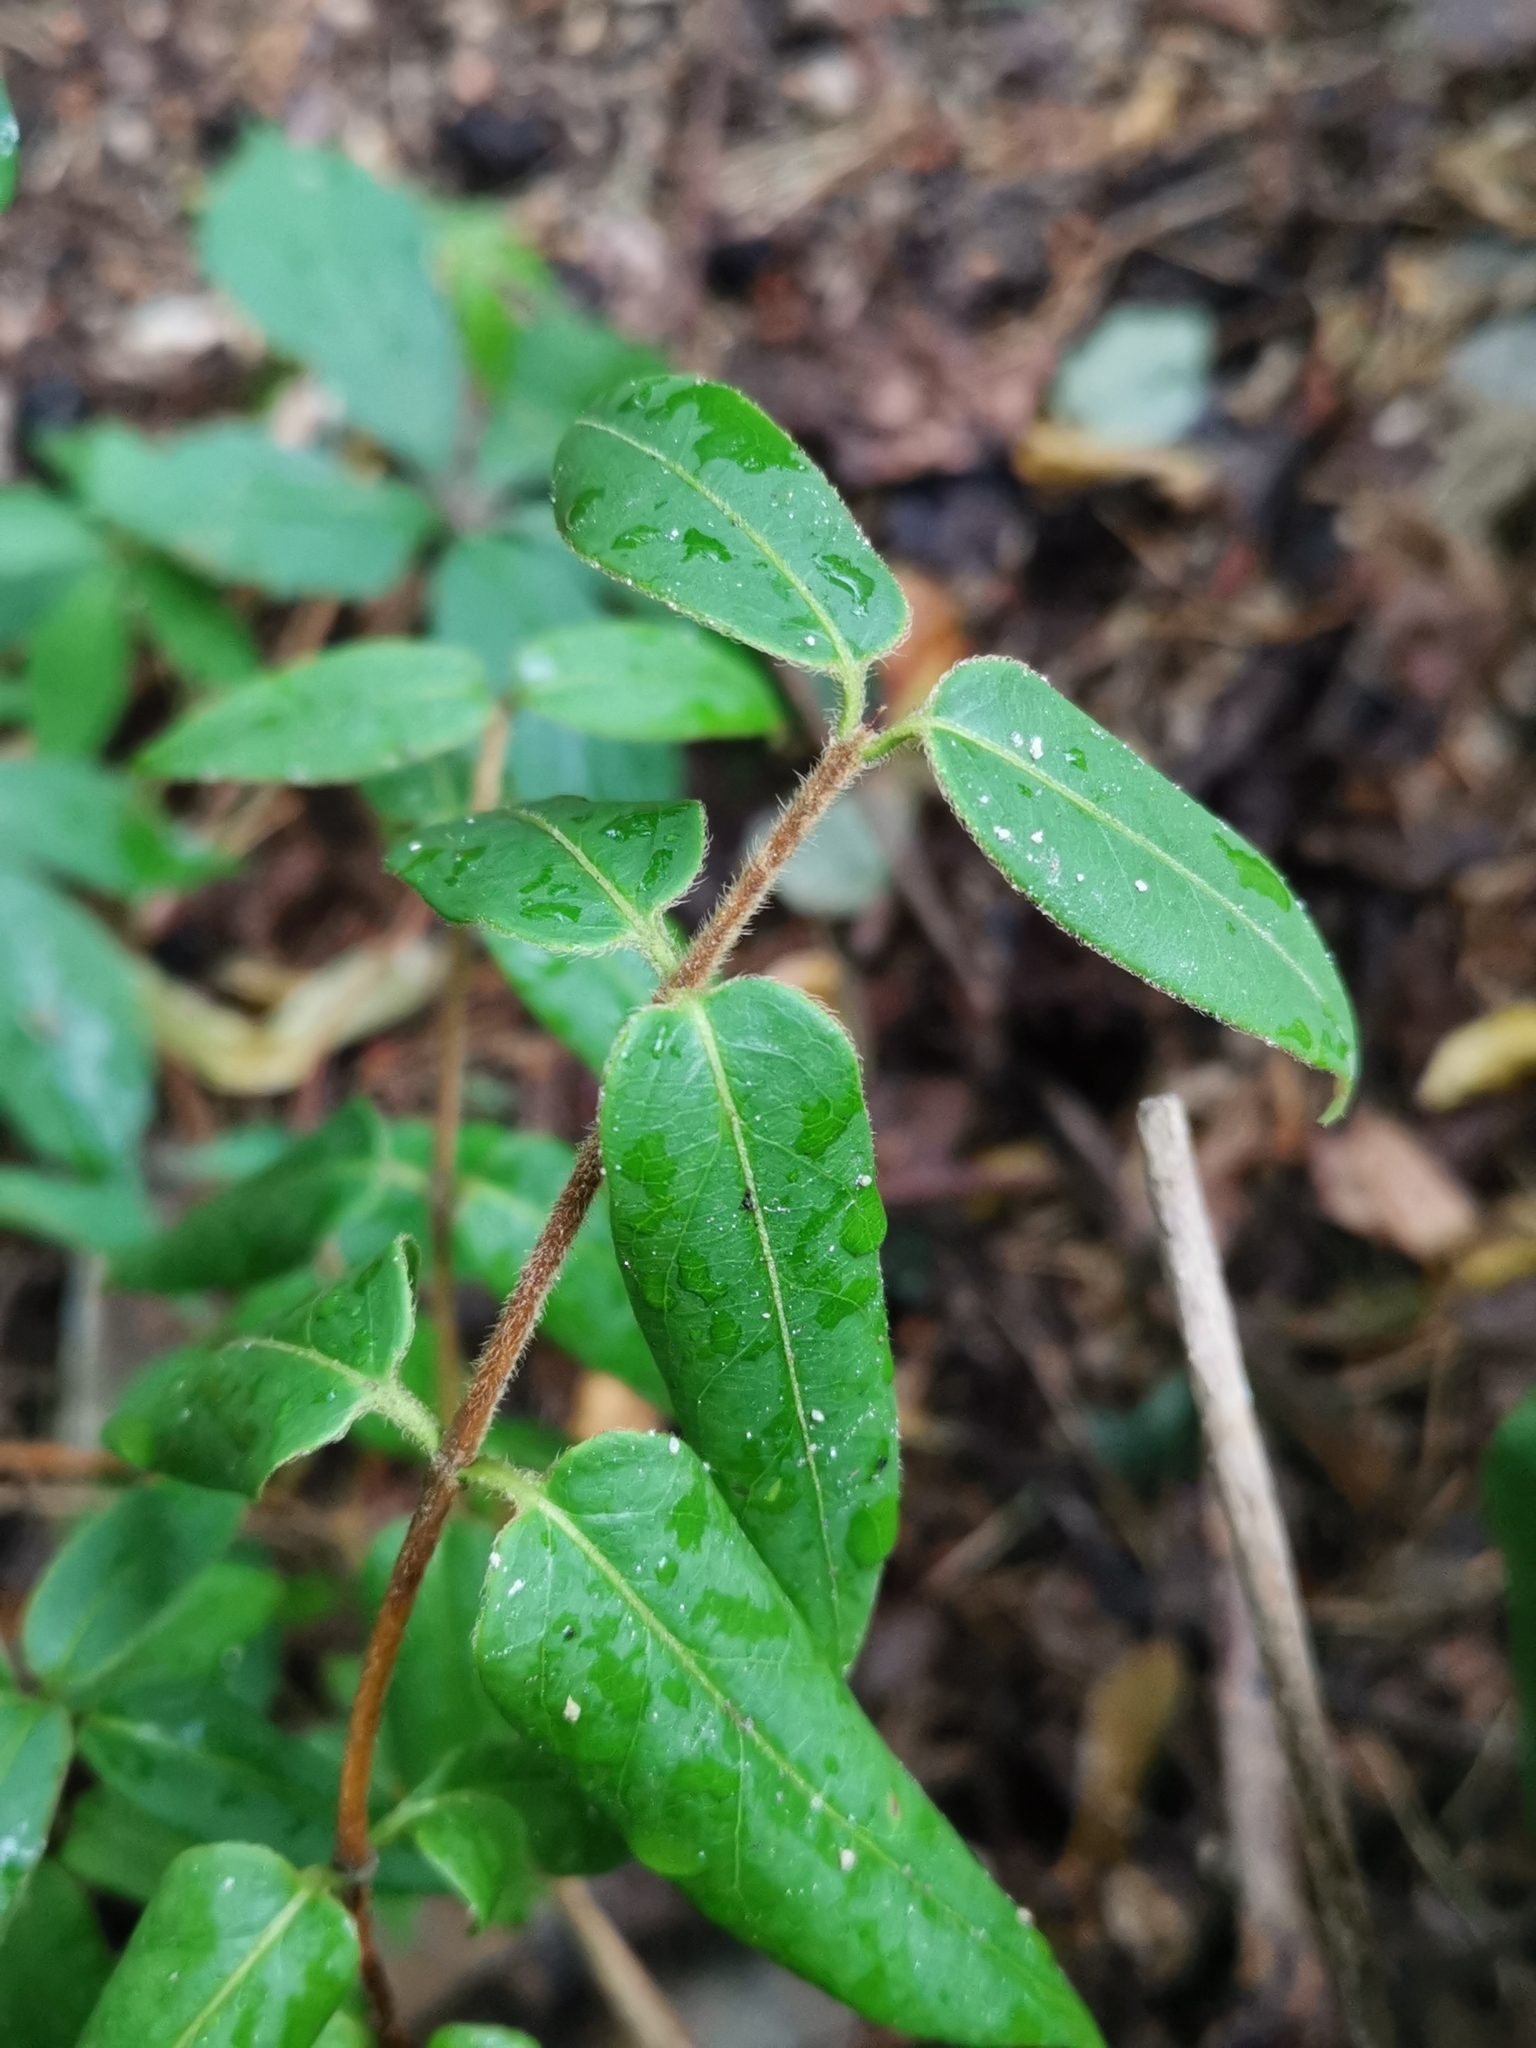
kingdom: Plantae
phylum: Tracheophyta
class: Magnoliopsida
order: Dipsacales
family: Caprifoliaceae
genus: Lonicera
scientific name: Lonicera acuminata
